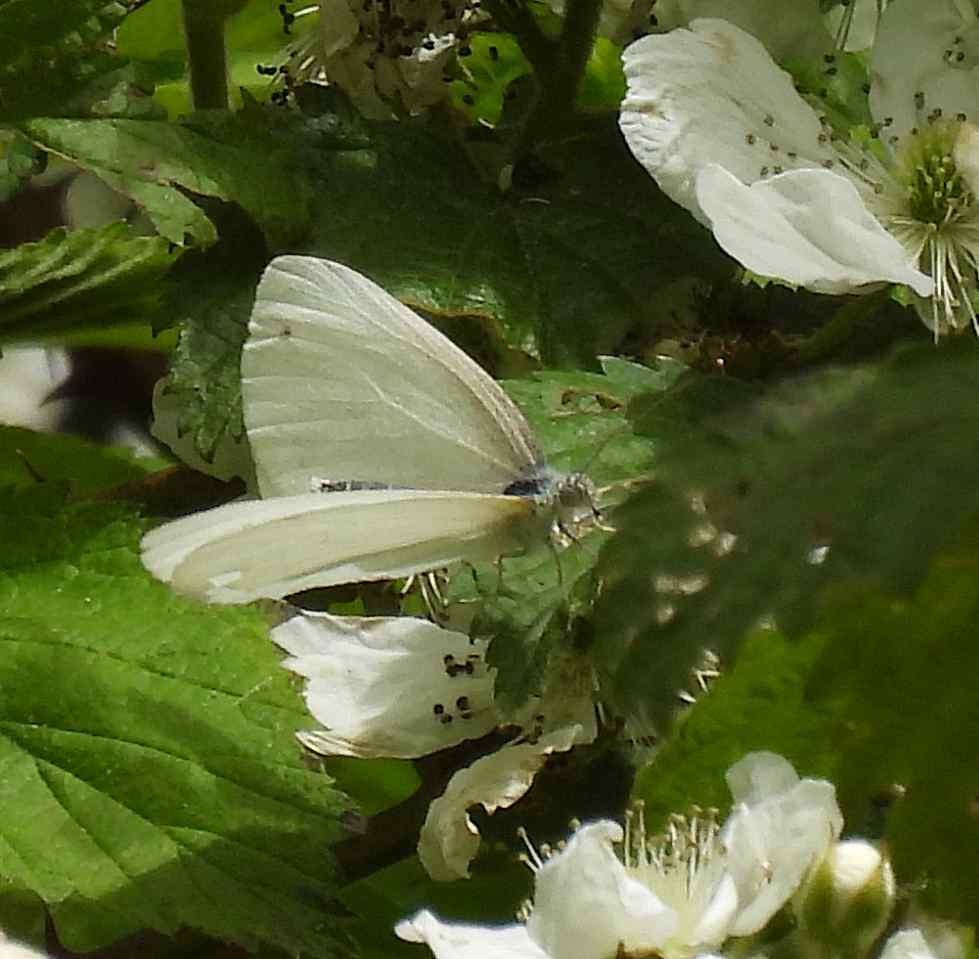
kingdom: Animalia
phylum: Arthropoda
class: Insecta
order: Lepidoptera
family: Pieridae
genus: Pieris
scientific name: Pieris virginiensis
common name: West virginia white
